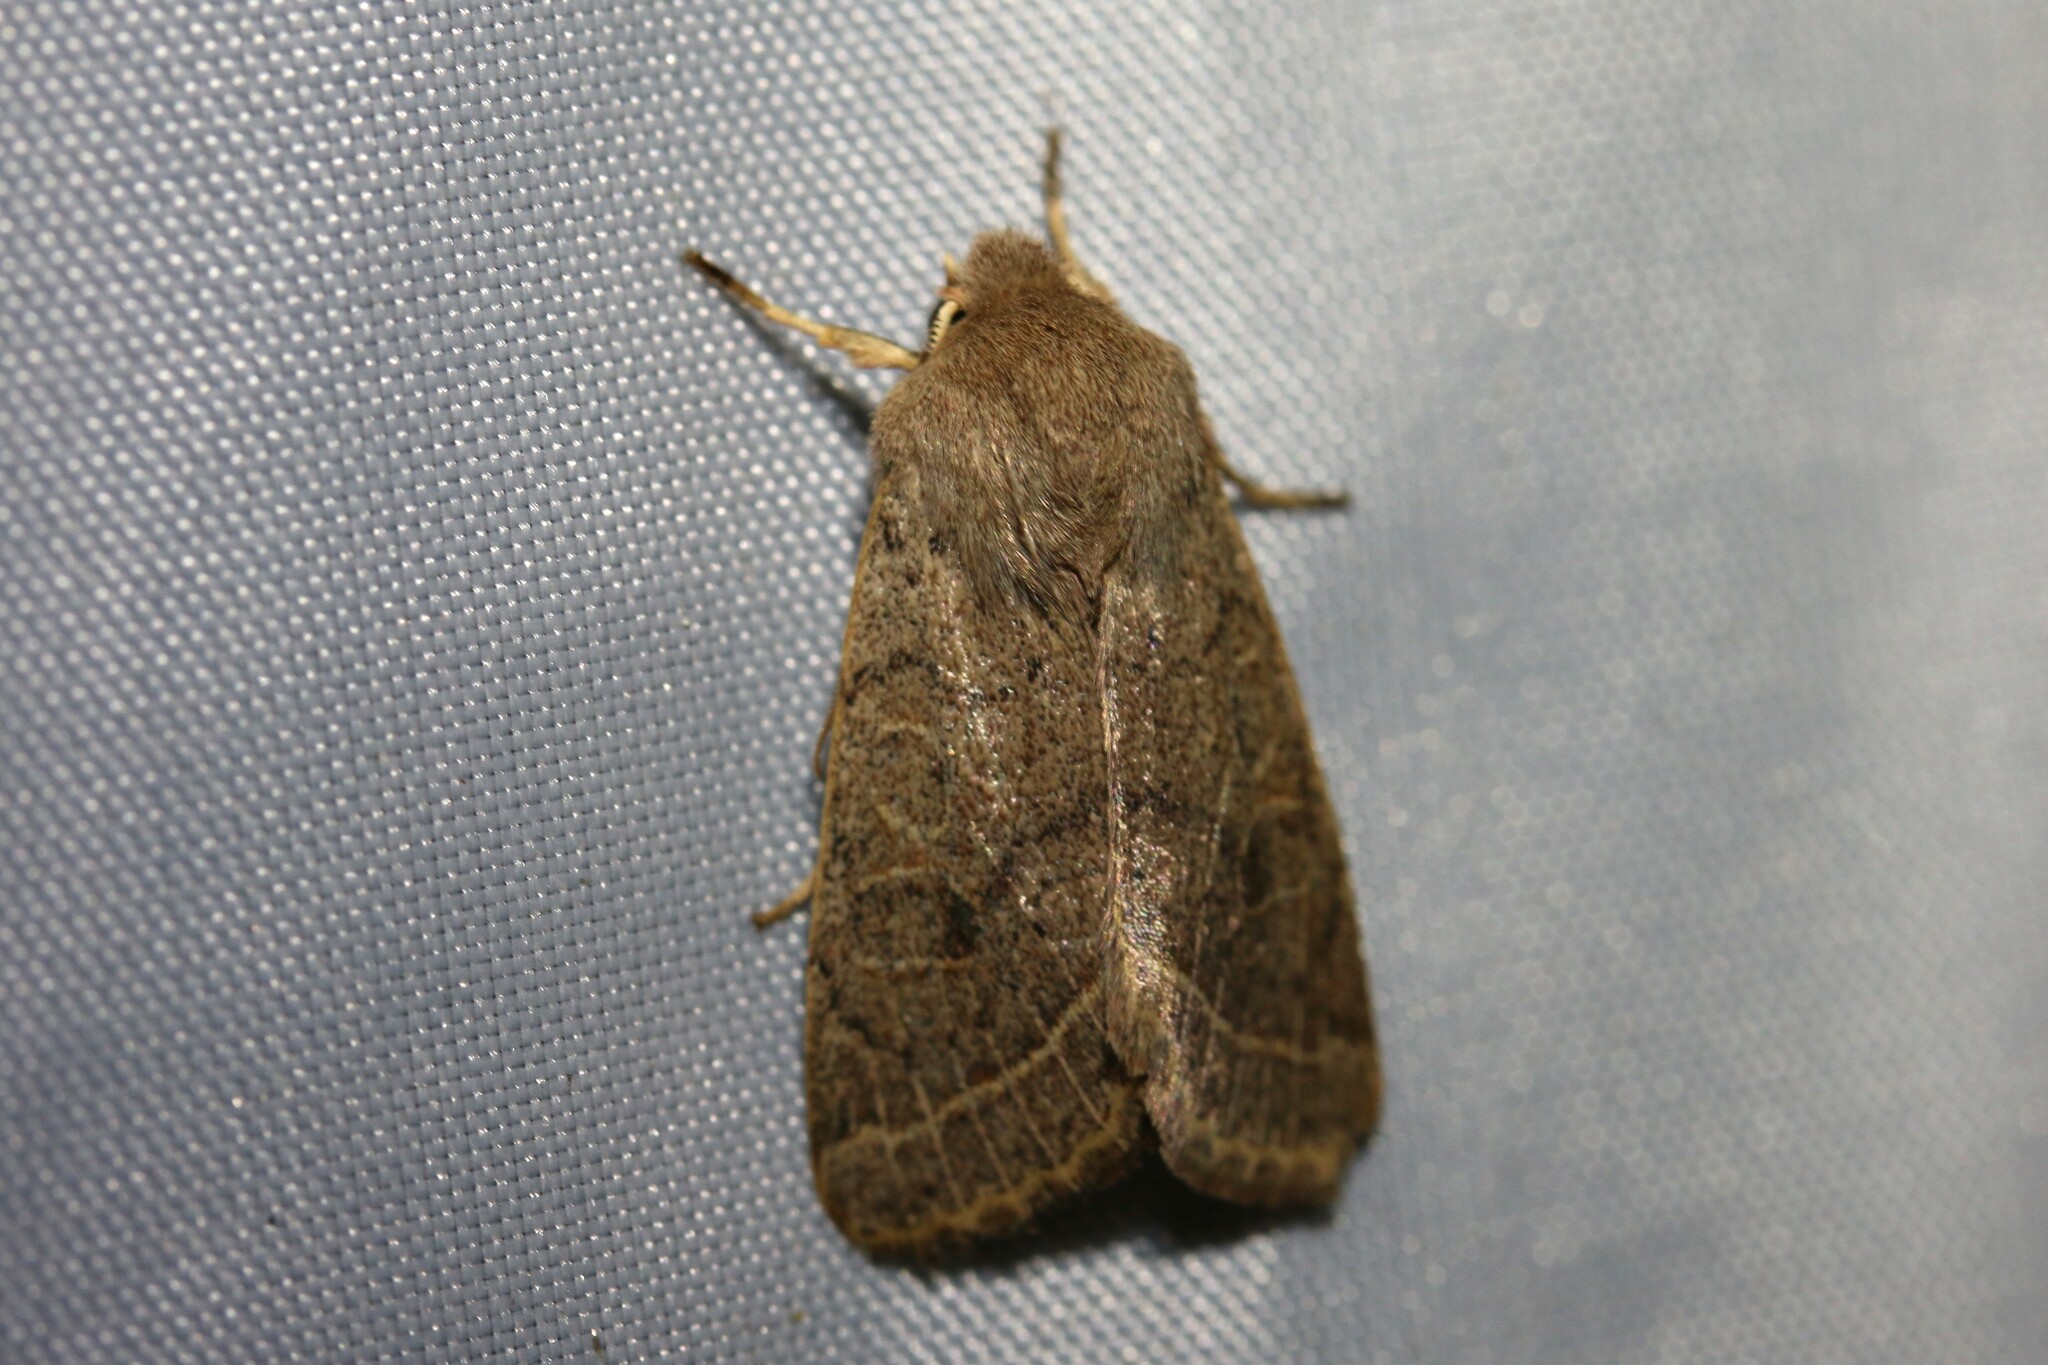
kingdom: Animalia
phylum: Arthropoda
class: Insecta
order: Lepidoptera
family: Noctuidae
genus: Orthosia
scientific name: Orthosia cerasi
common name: Common quaker
